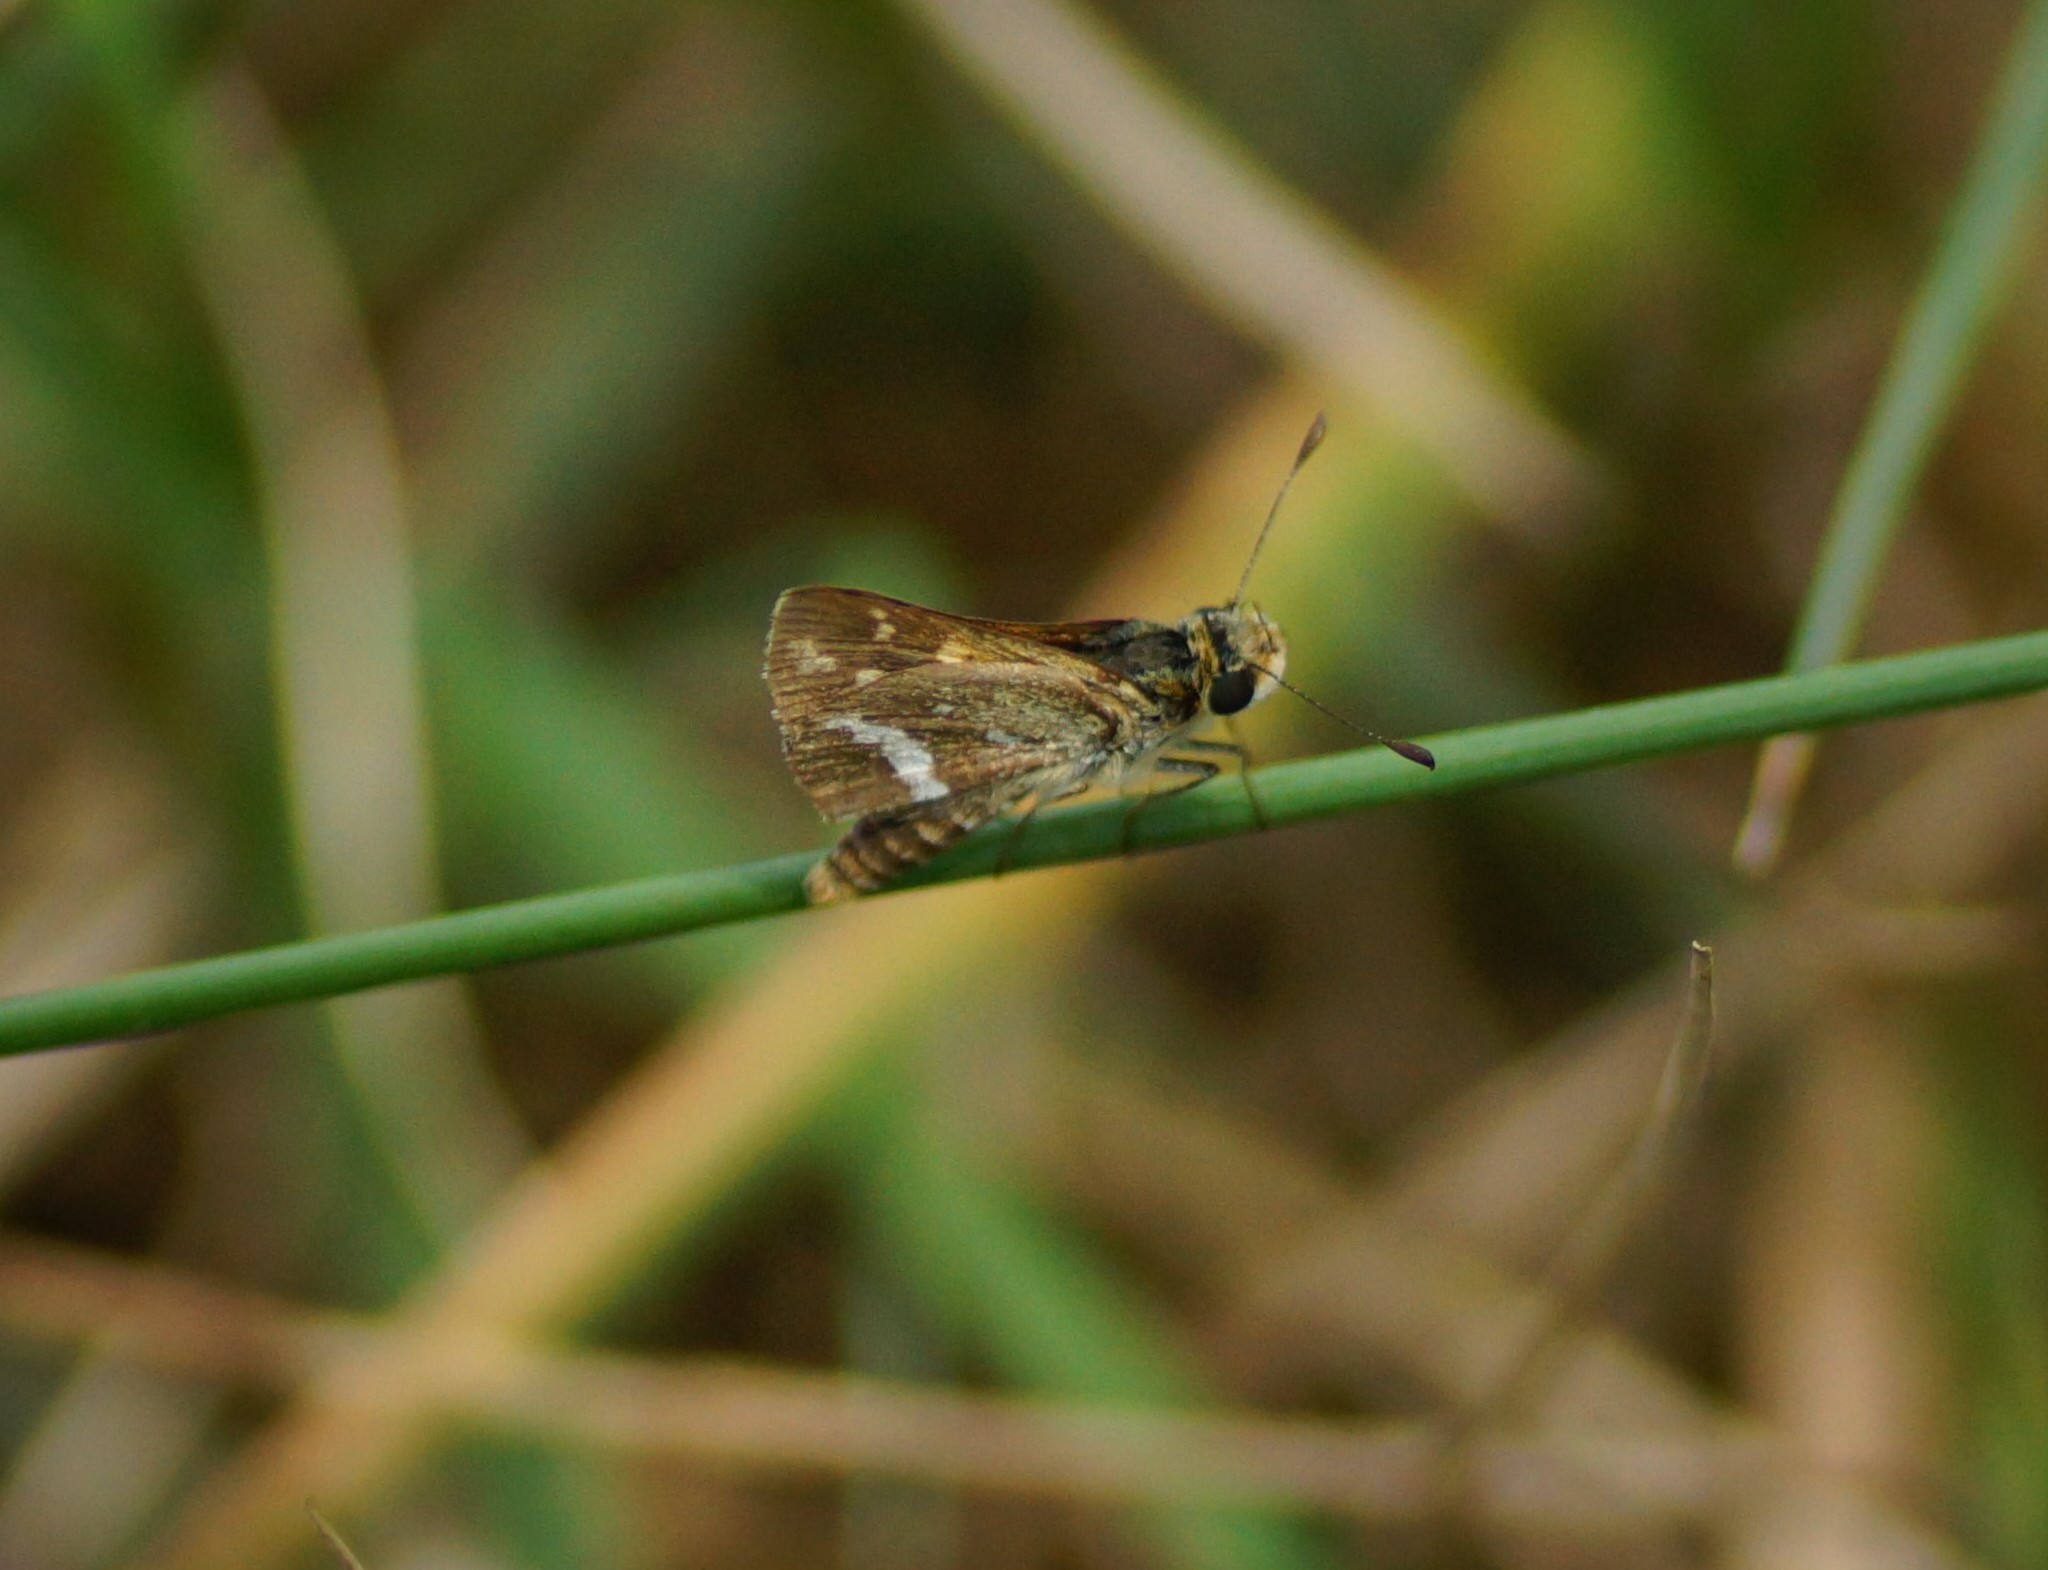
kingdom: Animalia
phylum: Arthropoda
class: Insecta
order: Lepidoptera
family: Hesperiidae
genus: Taractrocera
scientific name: Taractrocera papyria
